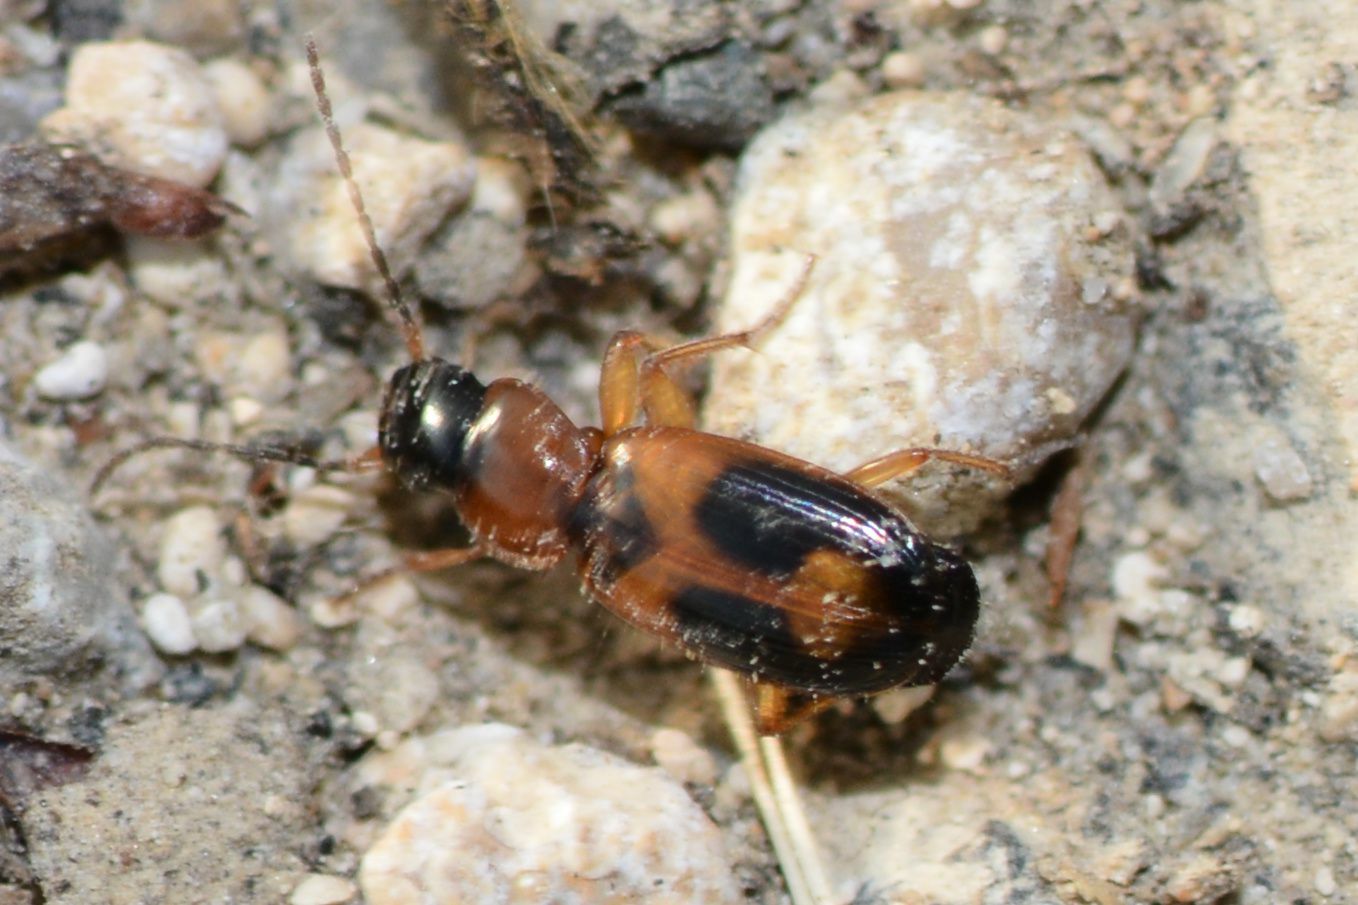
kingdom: Animalia
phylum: Arthropoda
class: Insecta
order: Coleoptera
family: Carabidae
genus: Badister
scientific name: Badister bullatus
